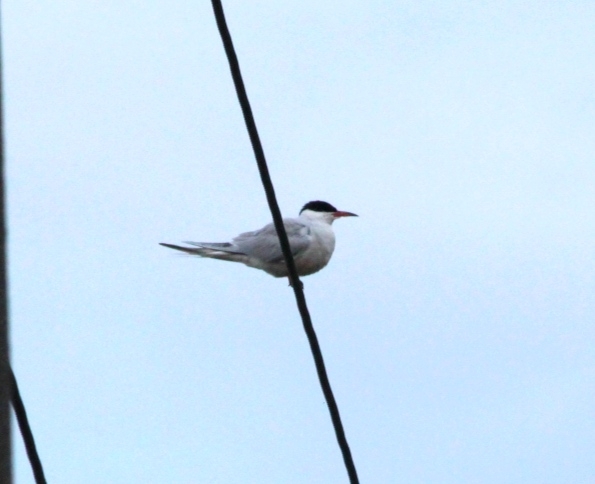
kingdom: Animalia
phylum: Chordata
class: Aves
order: Charadriiformes
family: Laridae
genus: Sterna
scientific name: Sterna hirundo
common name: Common tern
